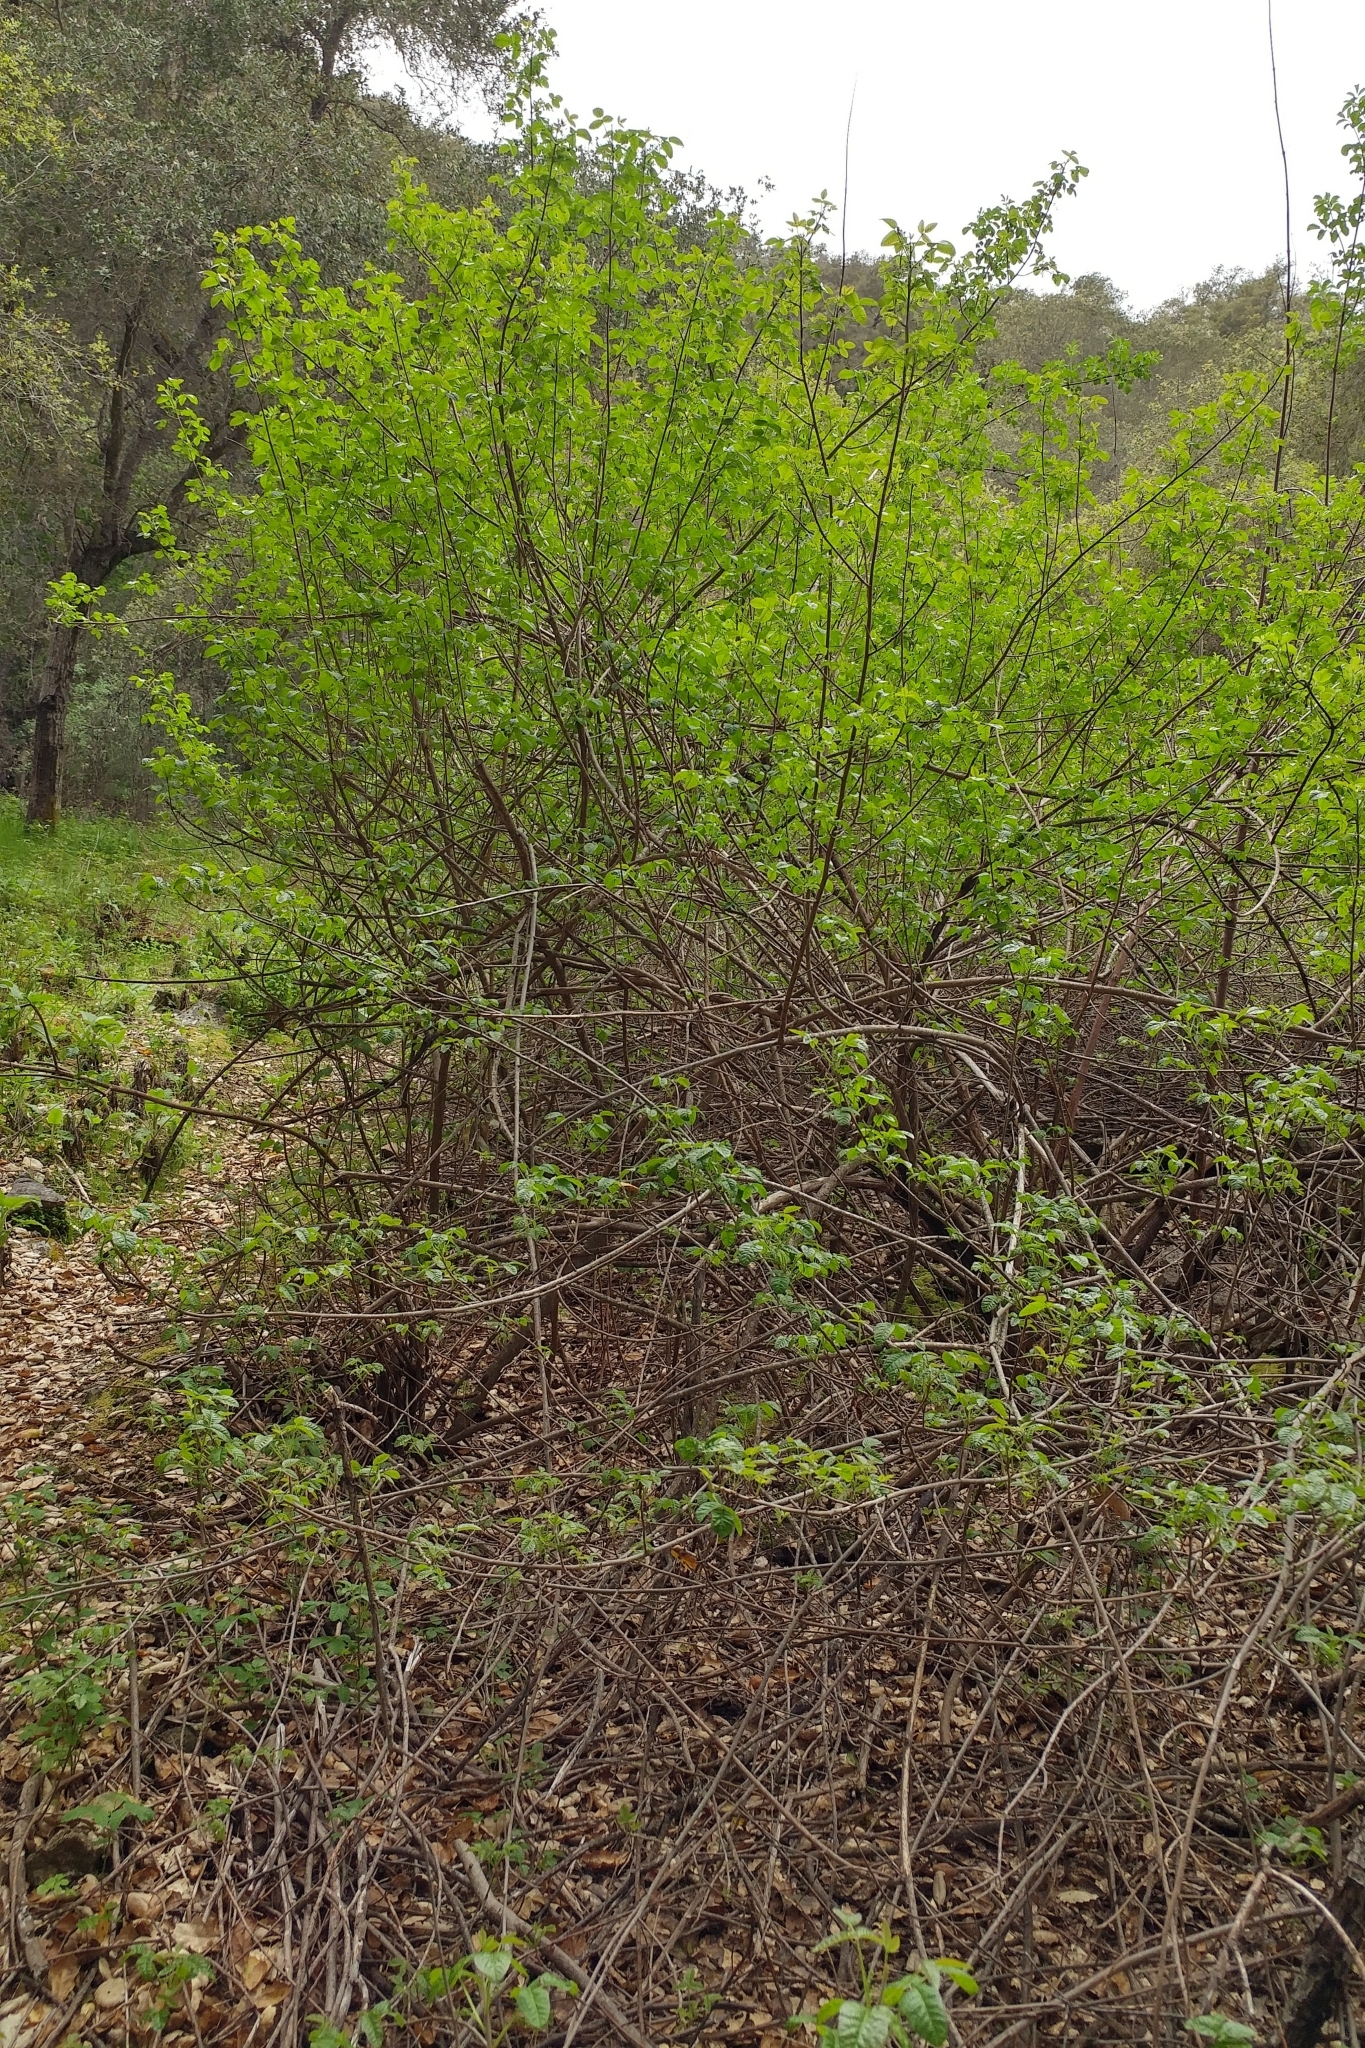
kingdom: Plantae
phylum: Tracheophyta
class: Magnoliopsida
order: Sapindales
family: Anacardiaceae
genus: Toxicodendron
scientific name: Toxicodendron diversilobum
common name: Pacific poison-oak
